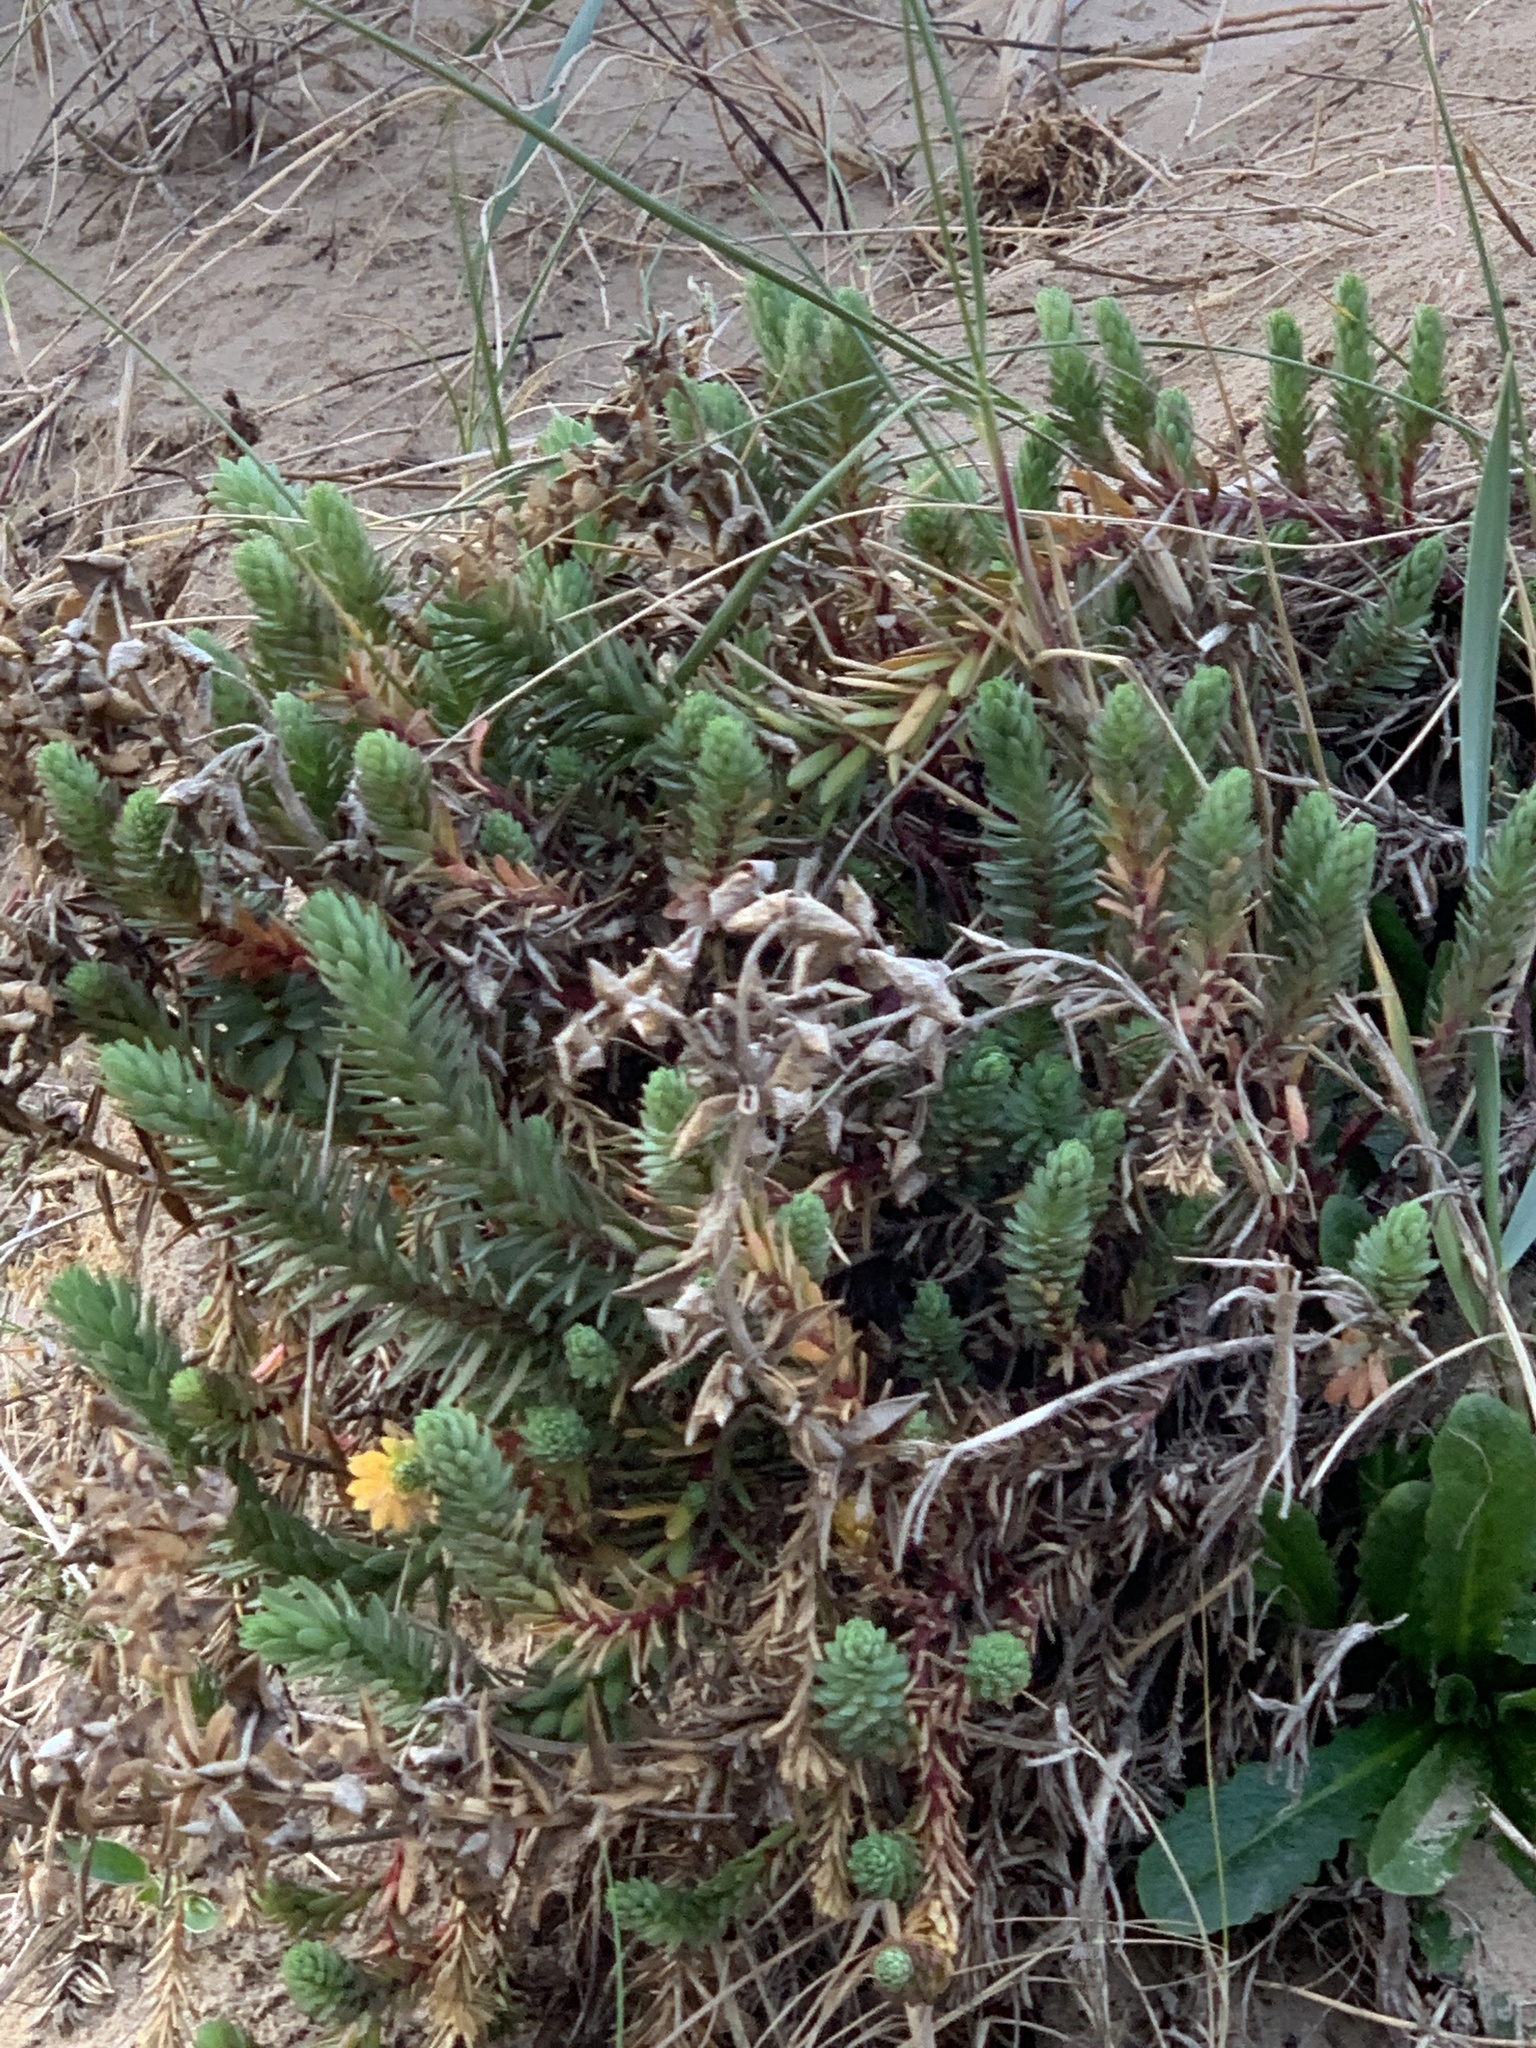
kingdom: Plantae
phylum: Tracheophyta
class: Magnoliopsida
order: Malpighiales
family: Euphorbiaceae
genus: Euphorbia
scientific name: Euphorbia paralias
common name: Sea spurge
